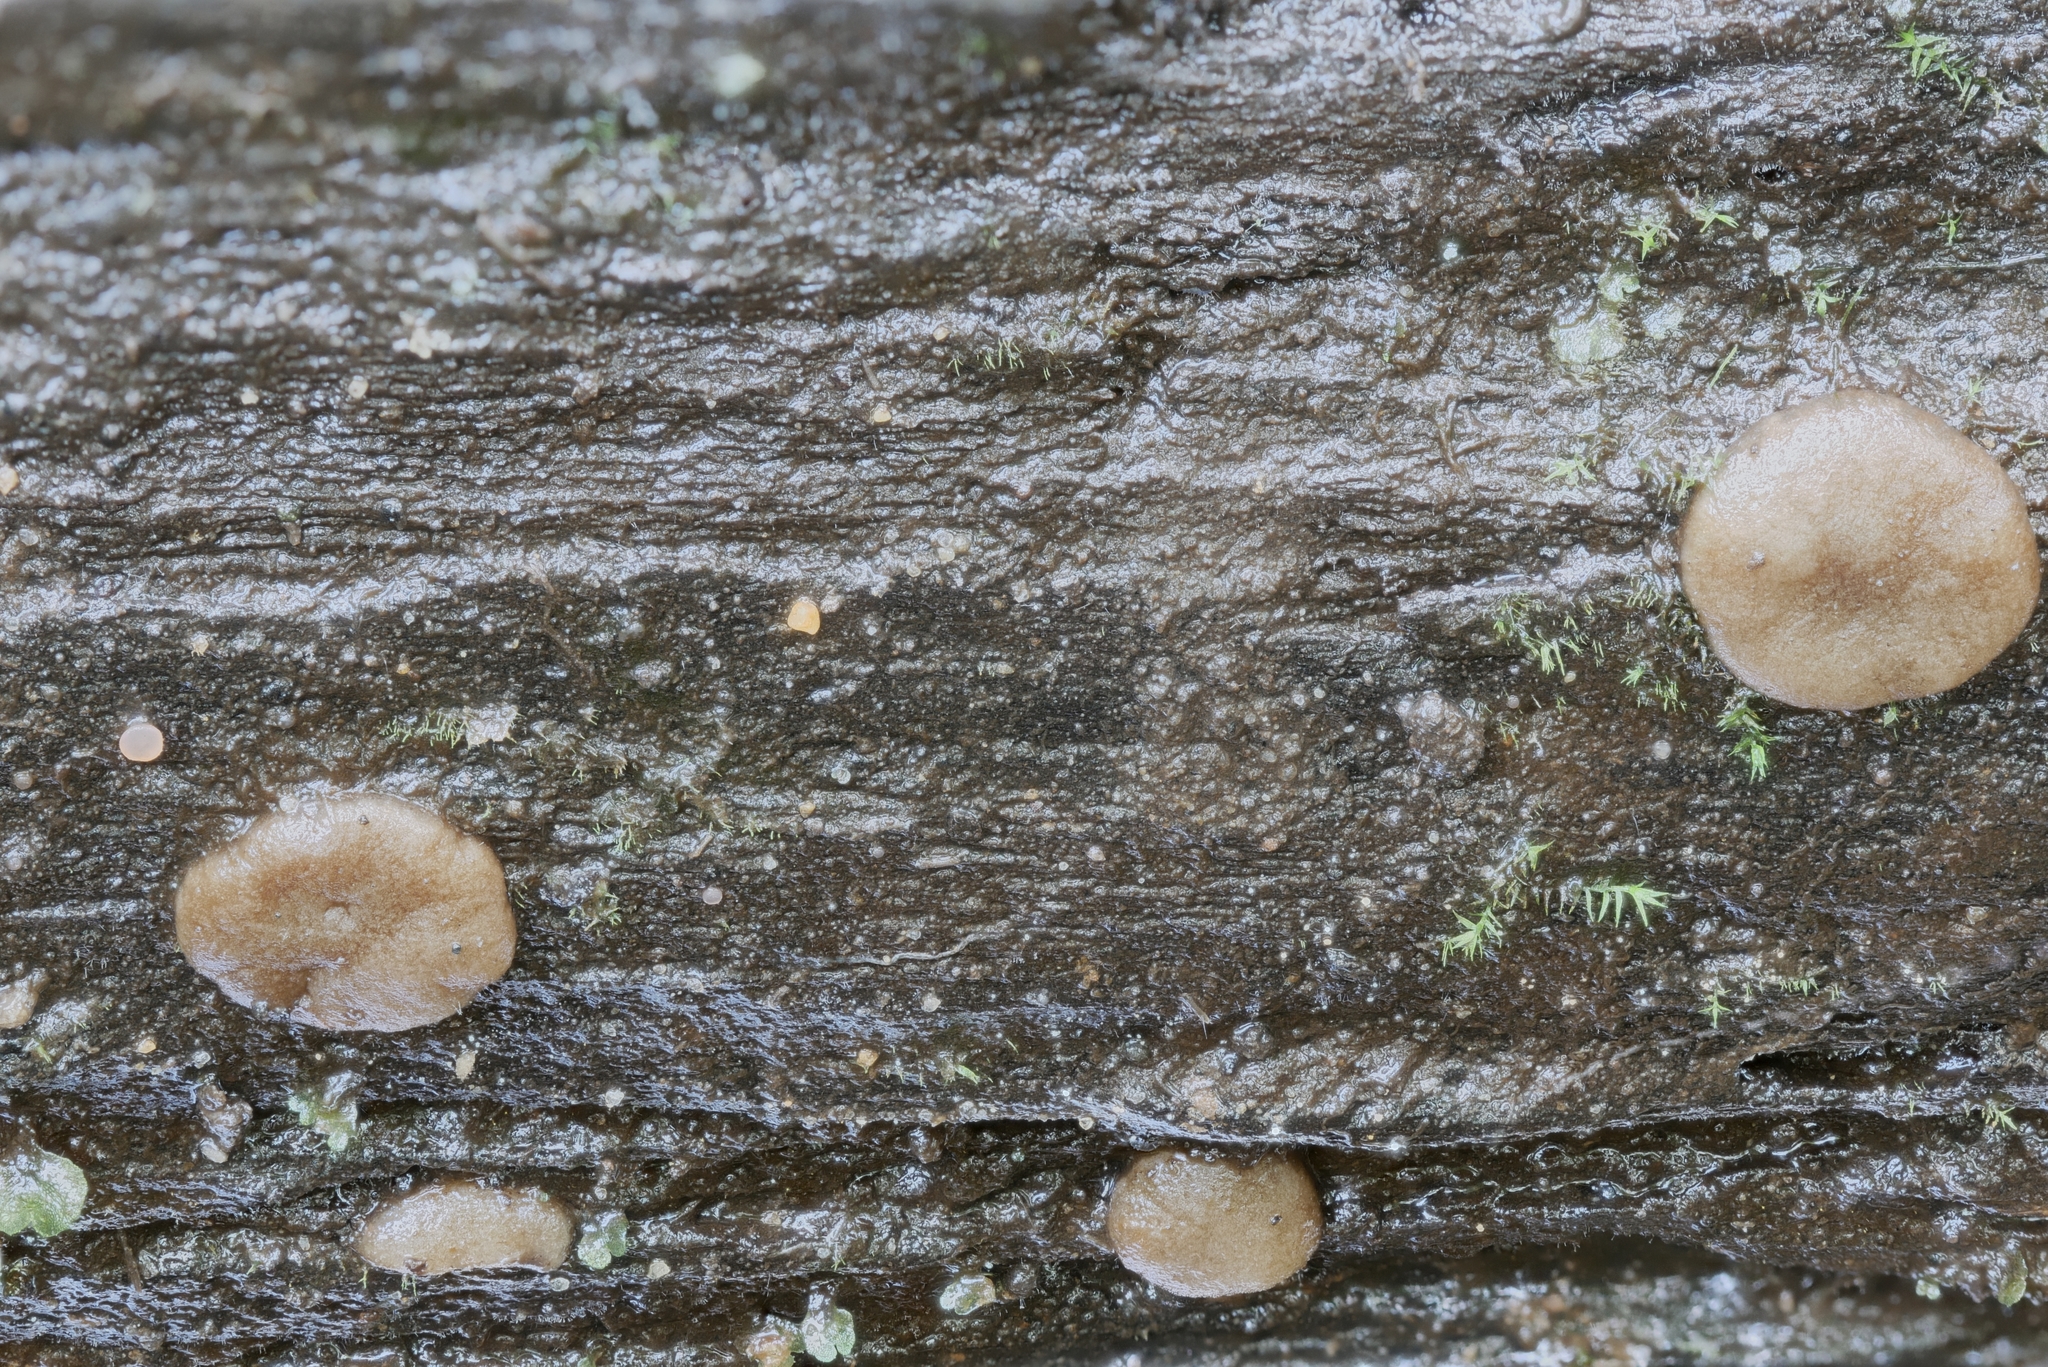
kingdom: Fungi
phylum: Ascomycota
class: Pezizomycetes
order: Pezizales
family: Pezizaceae
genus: Adelphella
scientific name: Adelphella babingtonii
